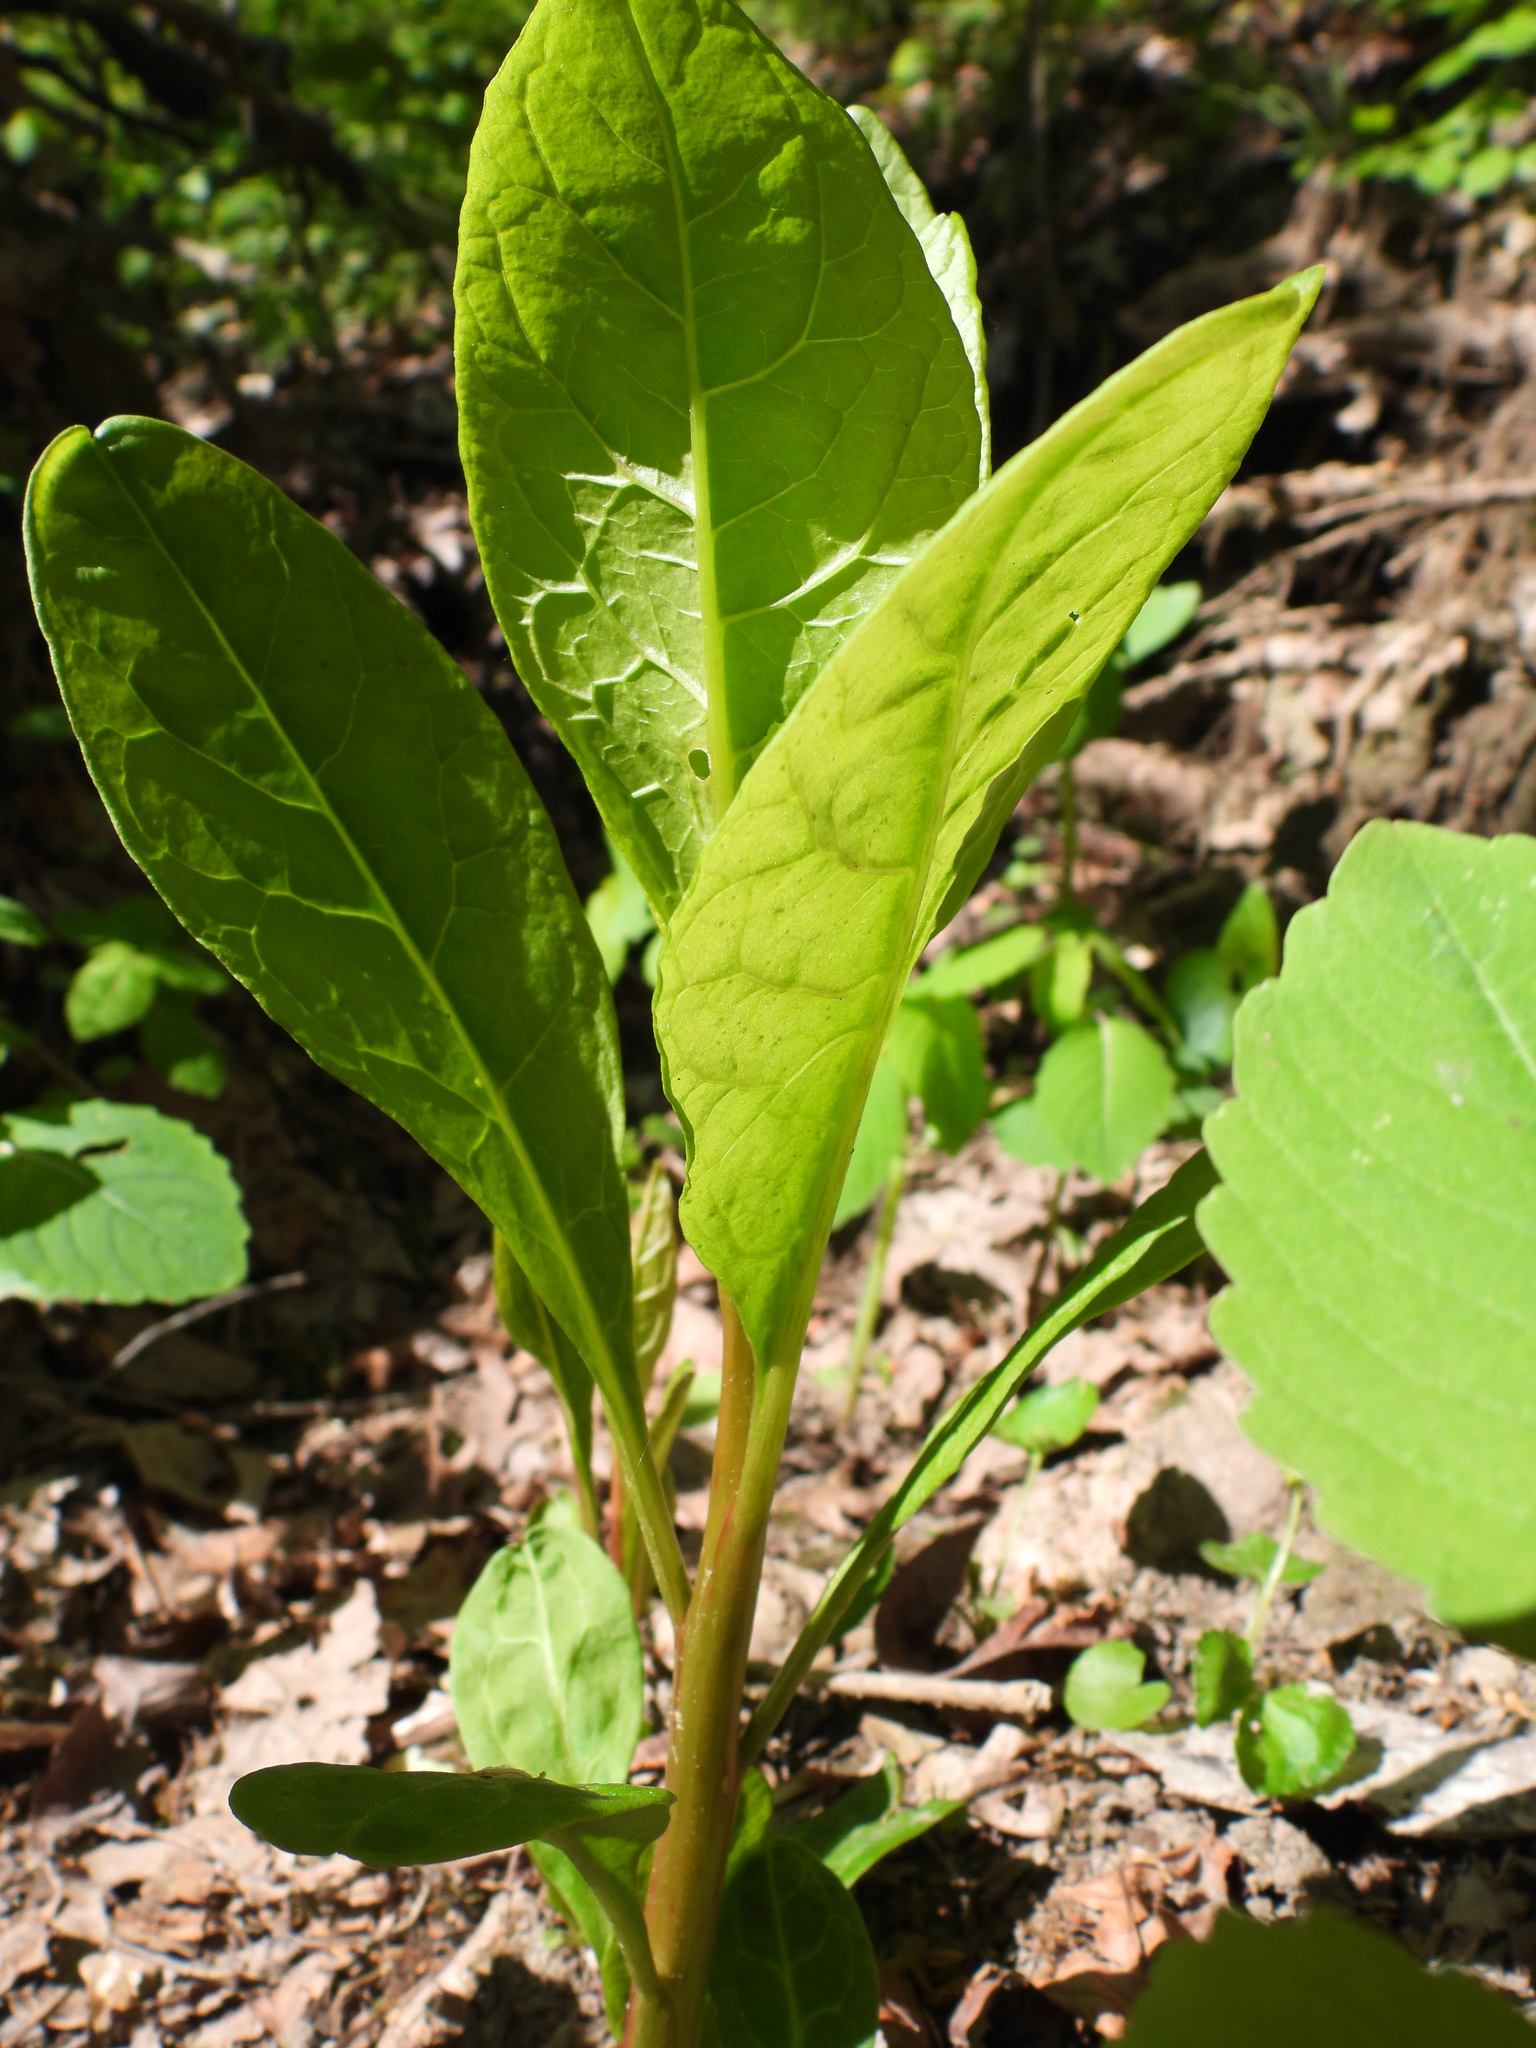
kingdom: Plantae
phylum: Tracheophyta
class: Magnoliopsida
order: Caryophyllales
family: Phytolaccaceae
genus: Phytolacca
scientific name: Phytolacca americana
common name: American pokeweed
